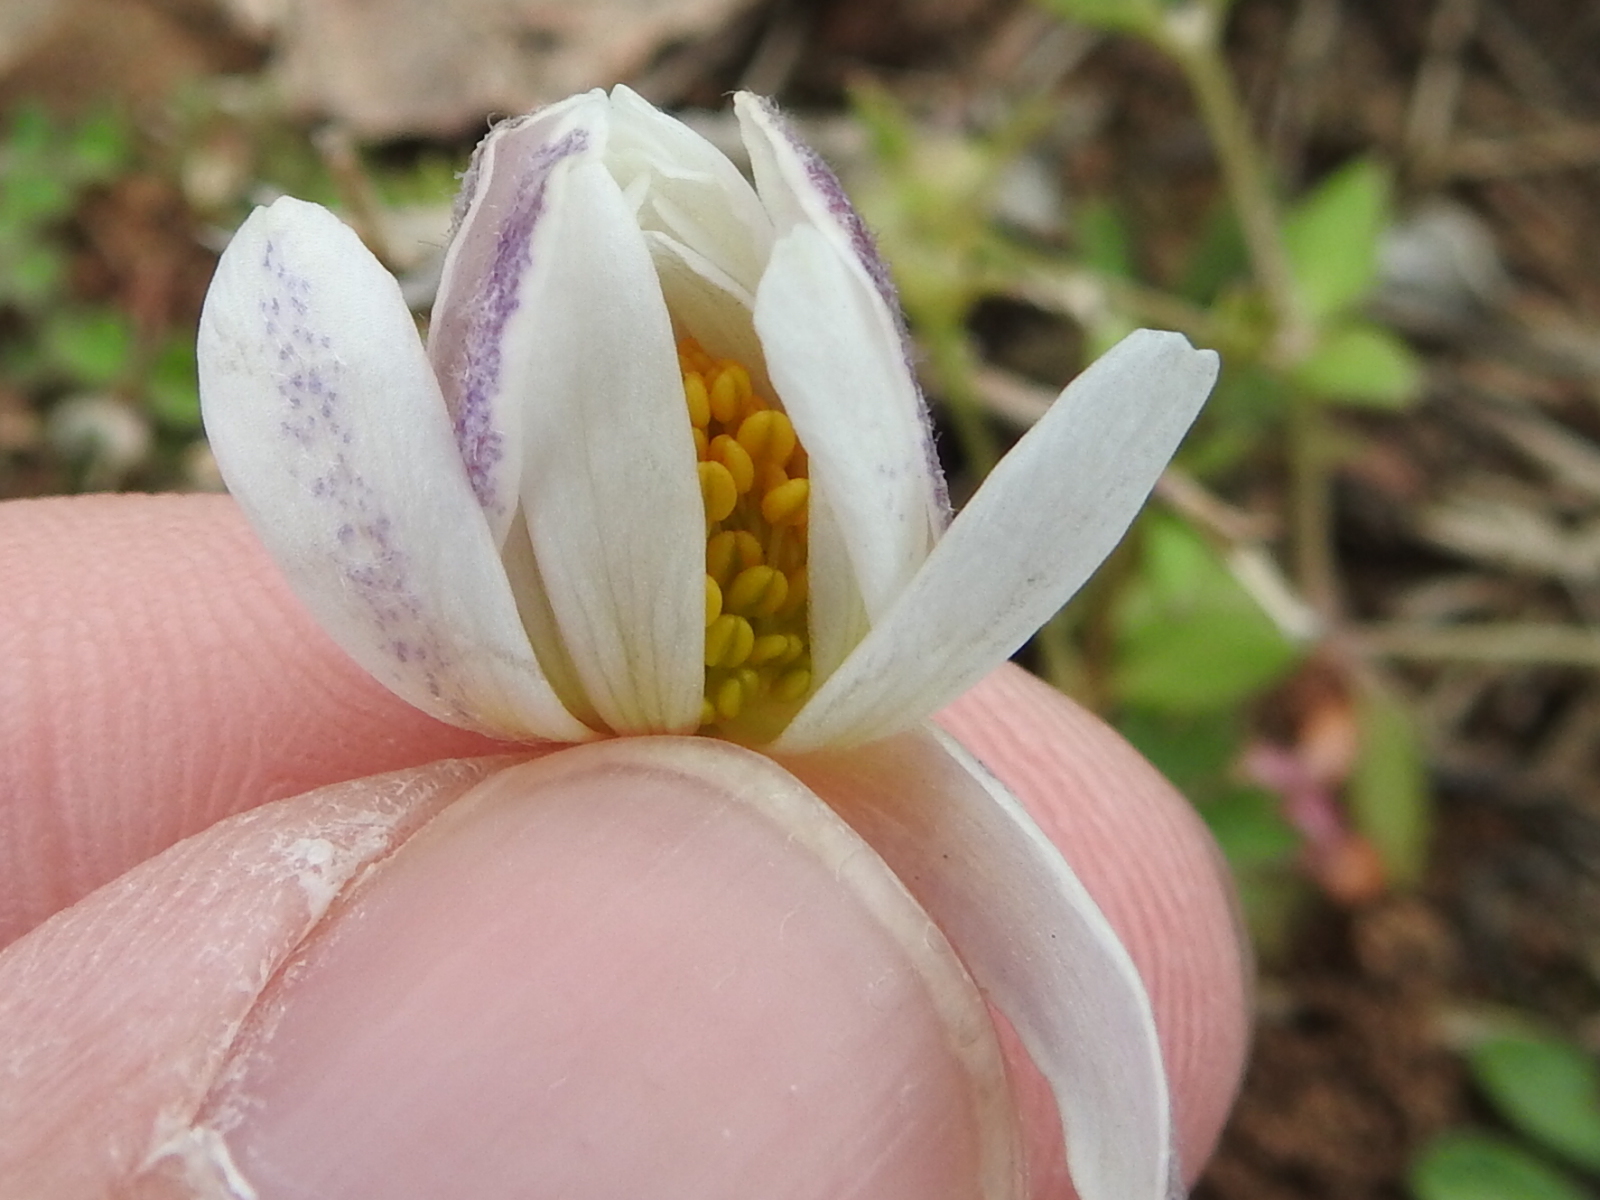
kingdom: Plantae
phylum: Tracheophyta
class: Magnoliopsida
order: Ranunculales
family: Ranunculaceae
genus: Anemone
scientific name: Anemone caroliniana
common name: Carolina anemone
